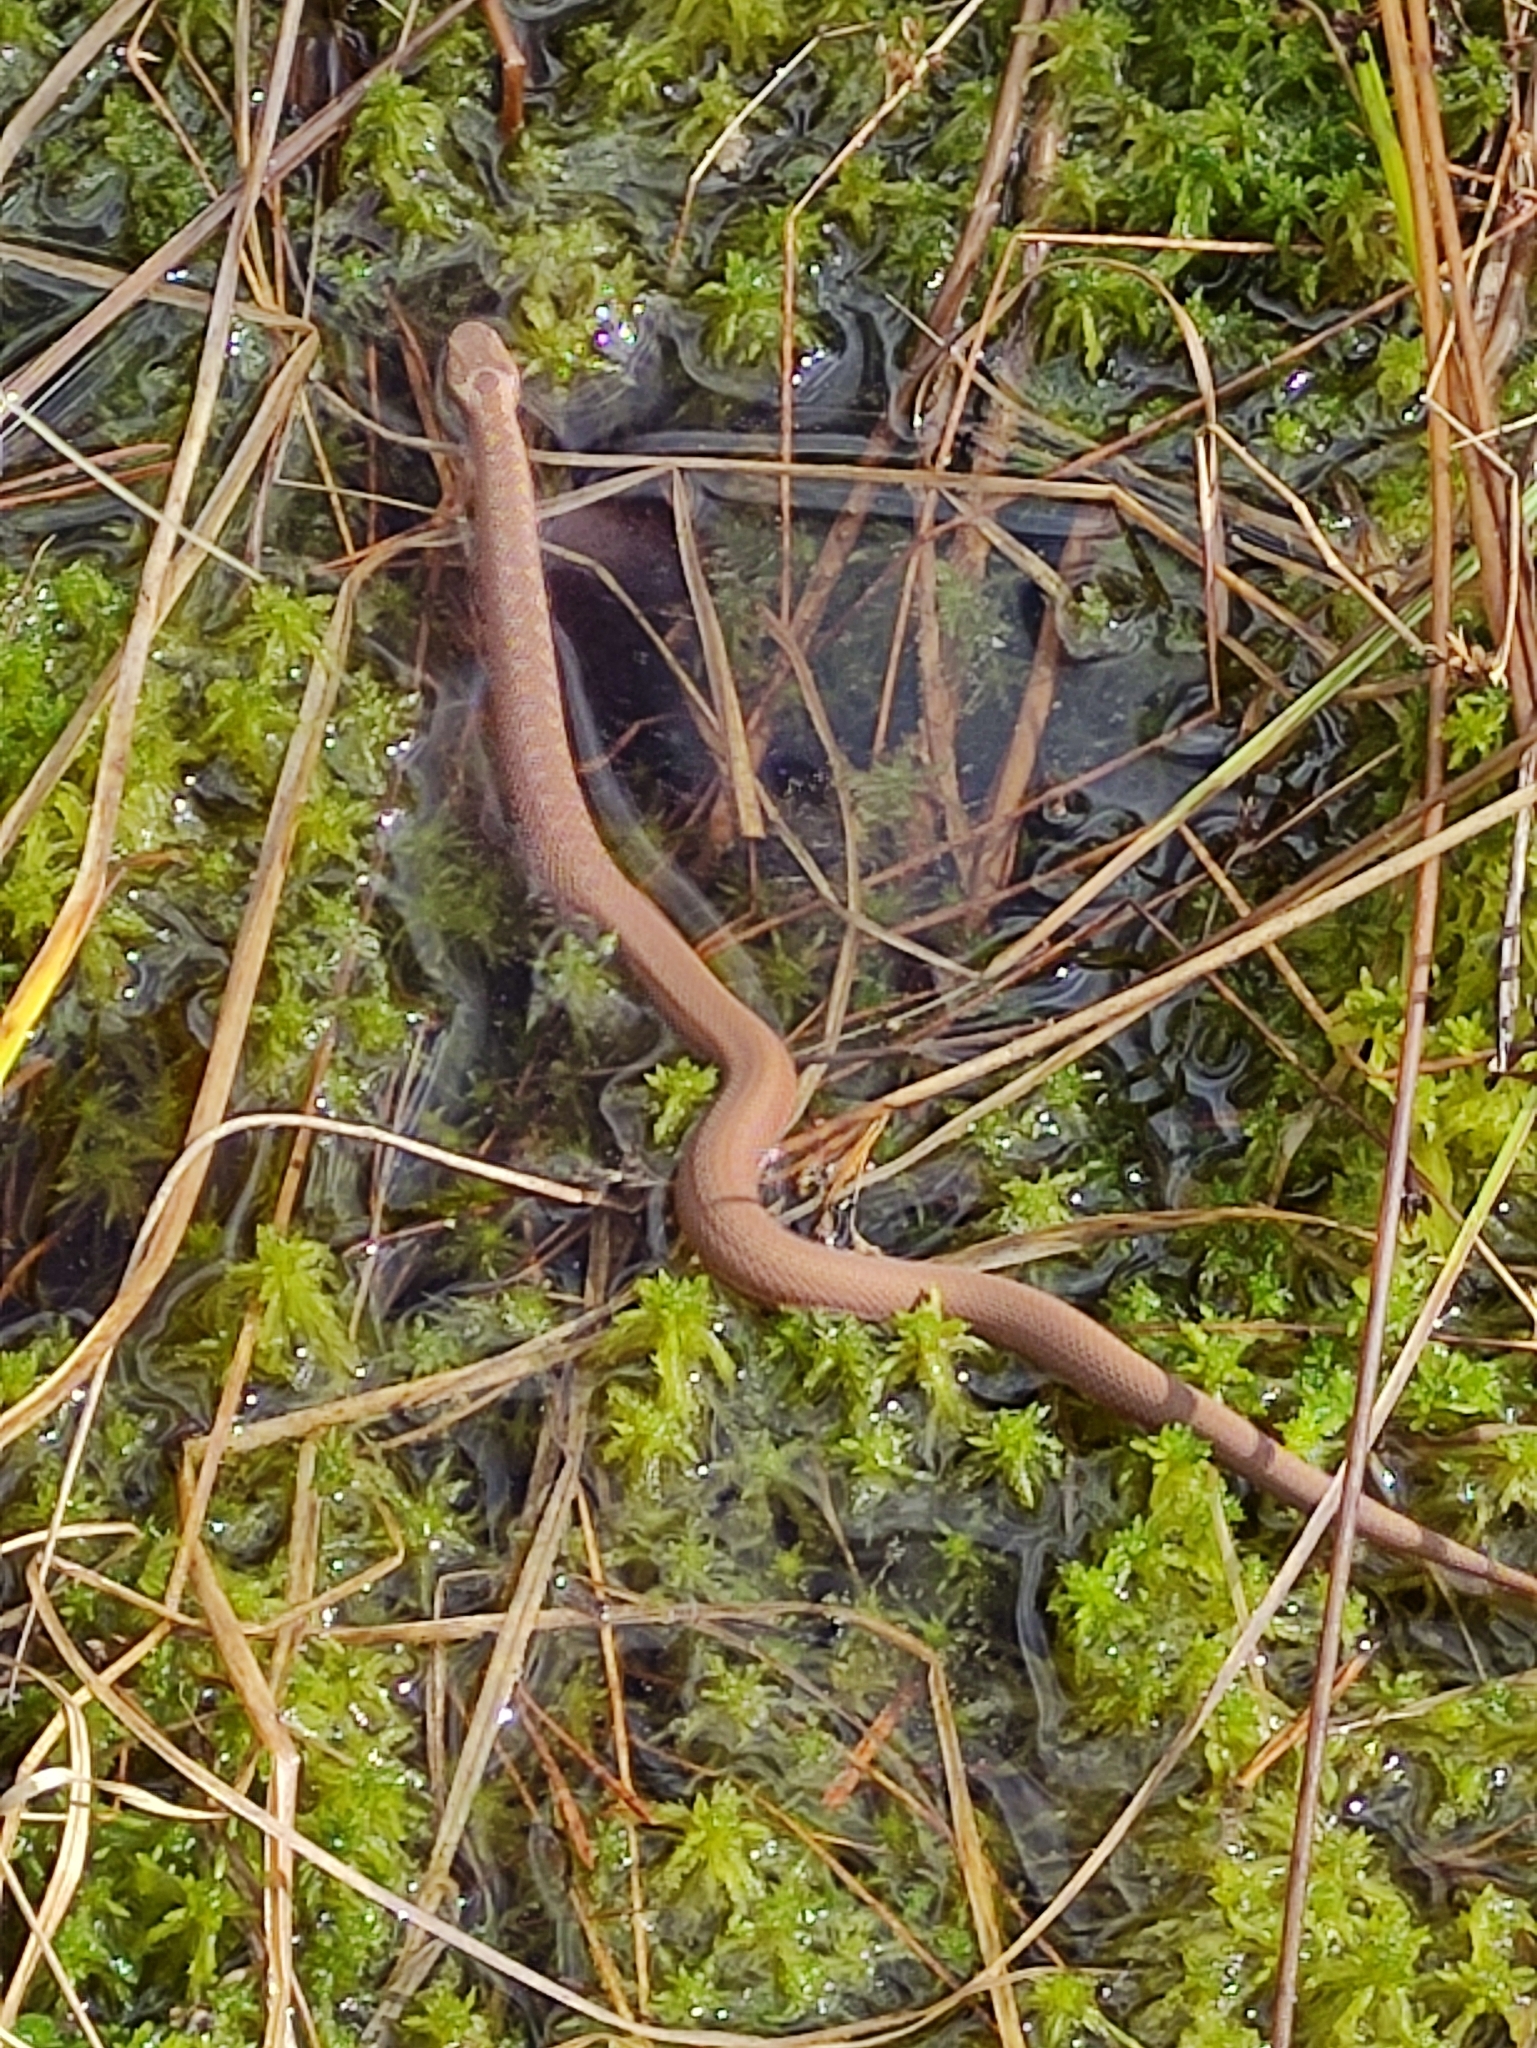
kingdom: Animalia
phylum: Chordata
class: Squamata
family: Viperidae
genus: Vipera
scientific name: Vipera berus
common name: Adder
